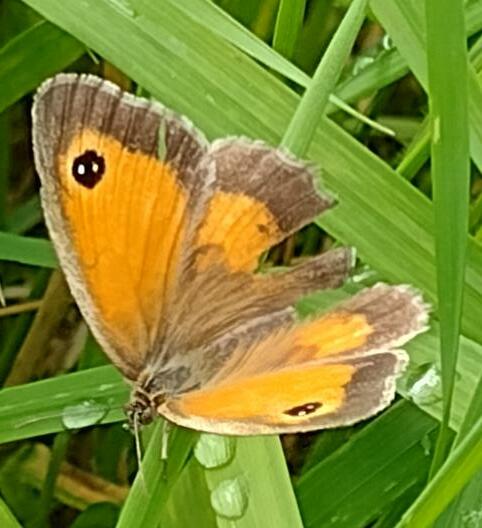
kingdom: Animalia
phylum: Arthropoda
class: Insecta
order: Lepidoptera
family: Nymphalidae
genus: Pyronia
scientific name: Pyronia tithonus
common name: Gatekeeper
